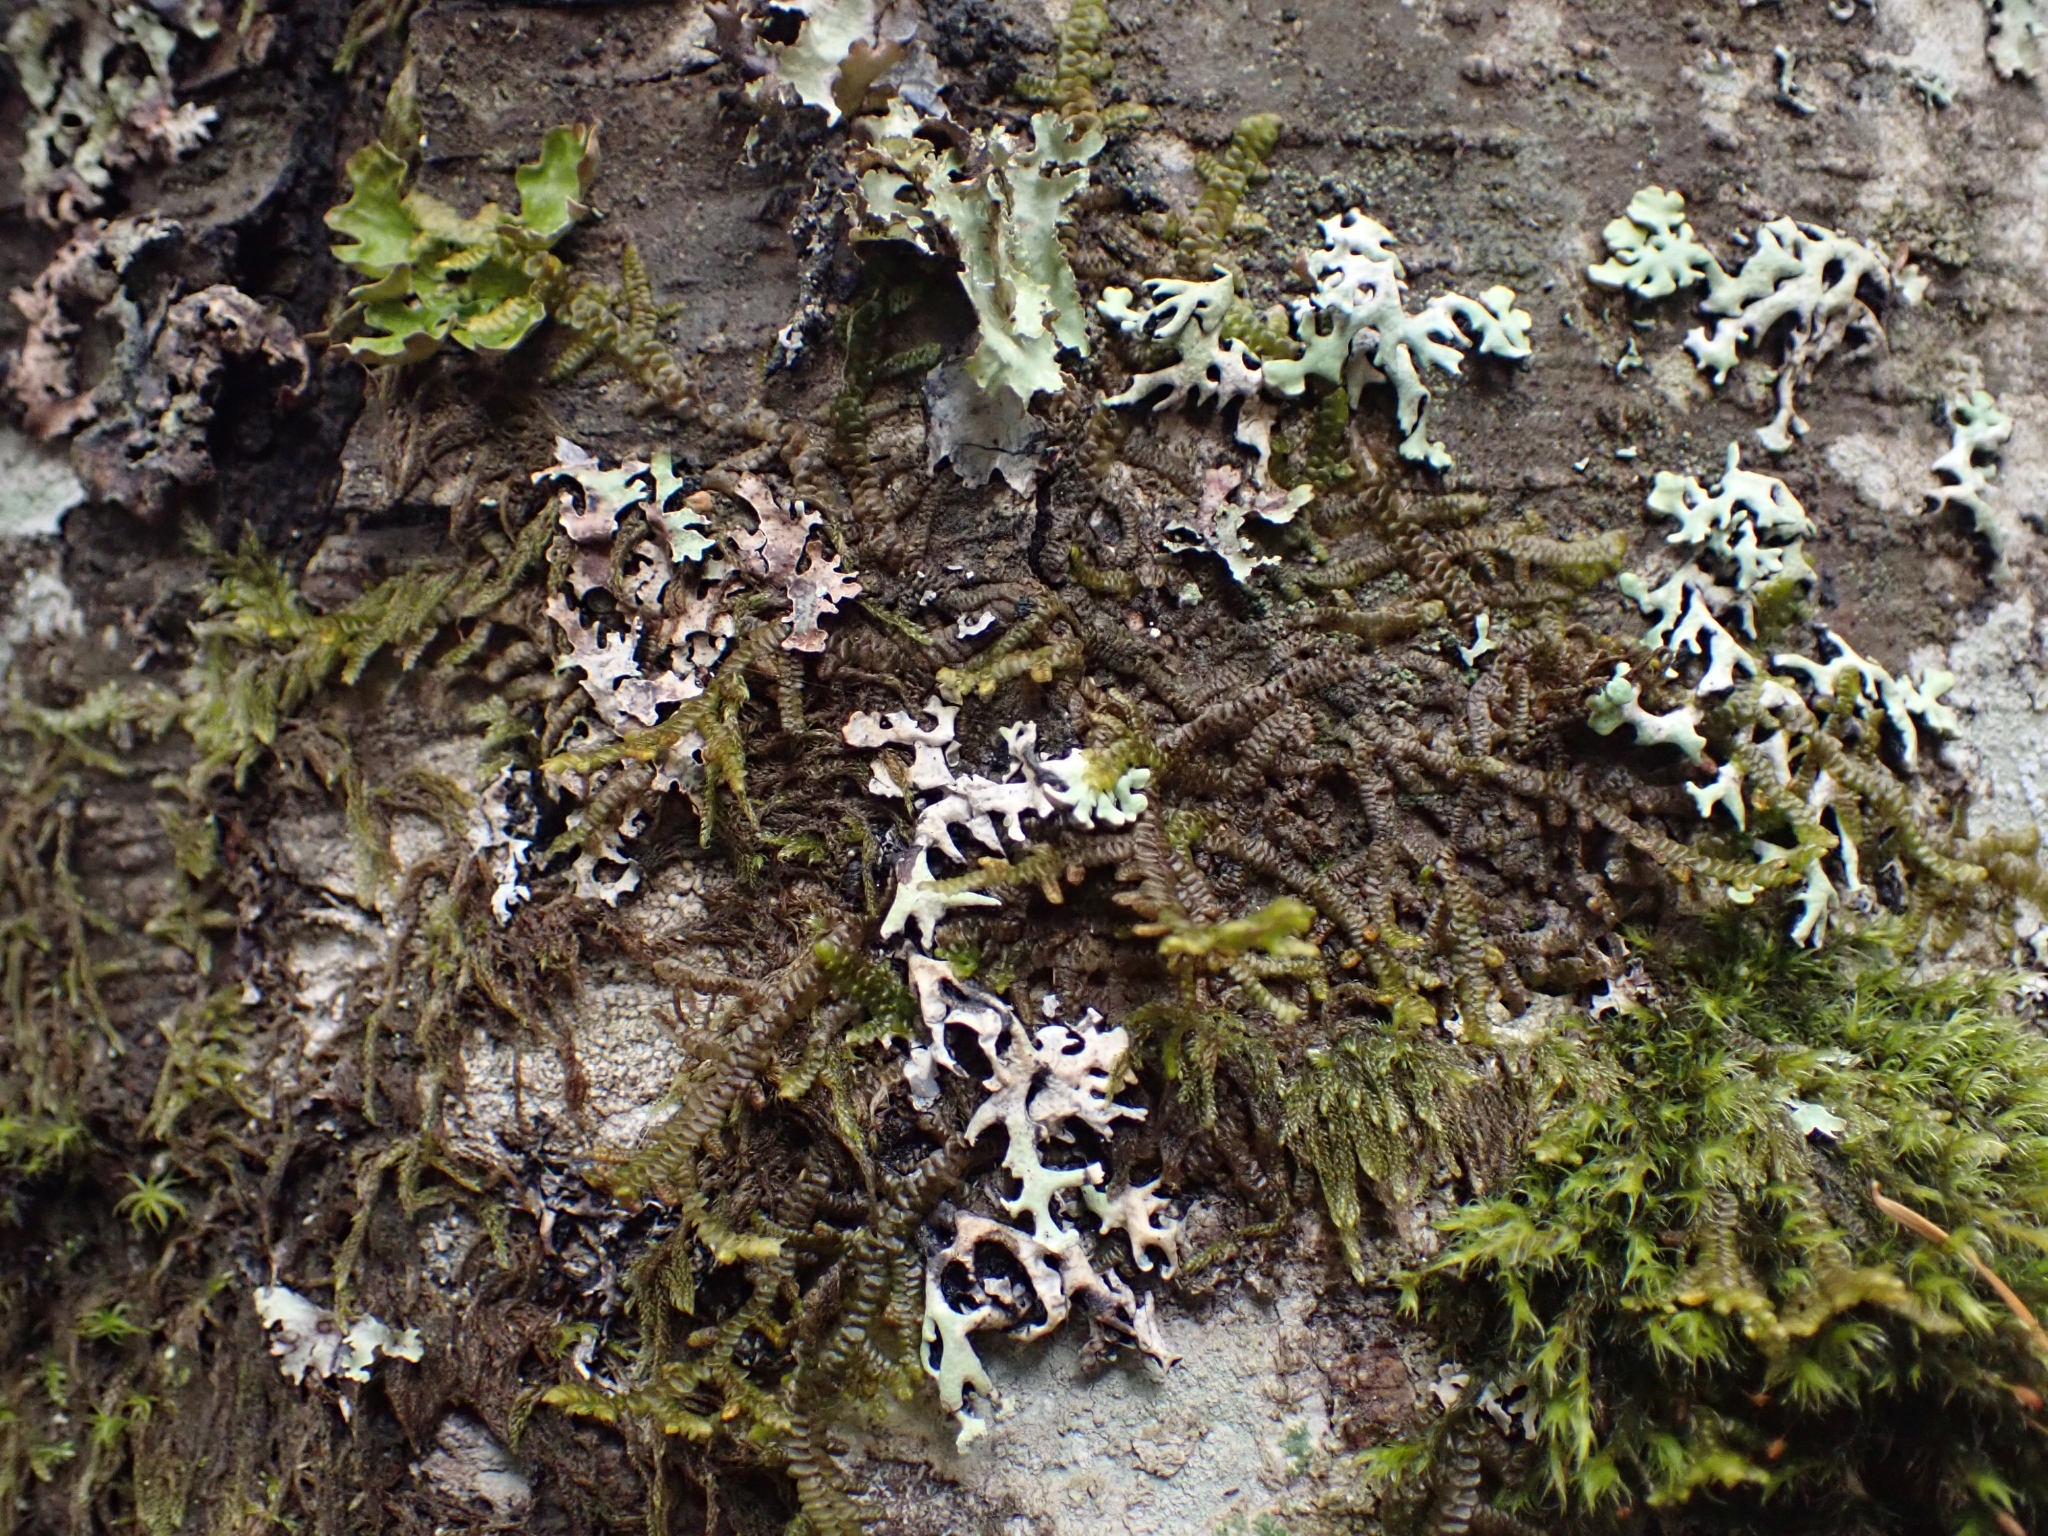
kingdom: Plantae
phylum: Marchantiophyta
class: Jungermanniopsida
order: Porellales
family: Porellaceae
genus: Porella
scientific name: Porella navicularis
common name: Tree ruffle liverwort
